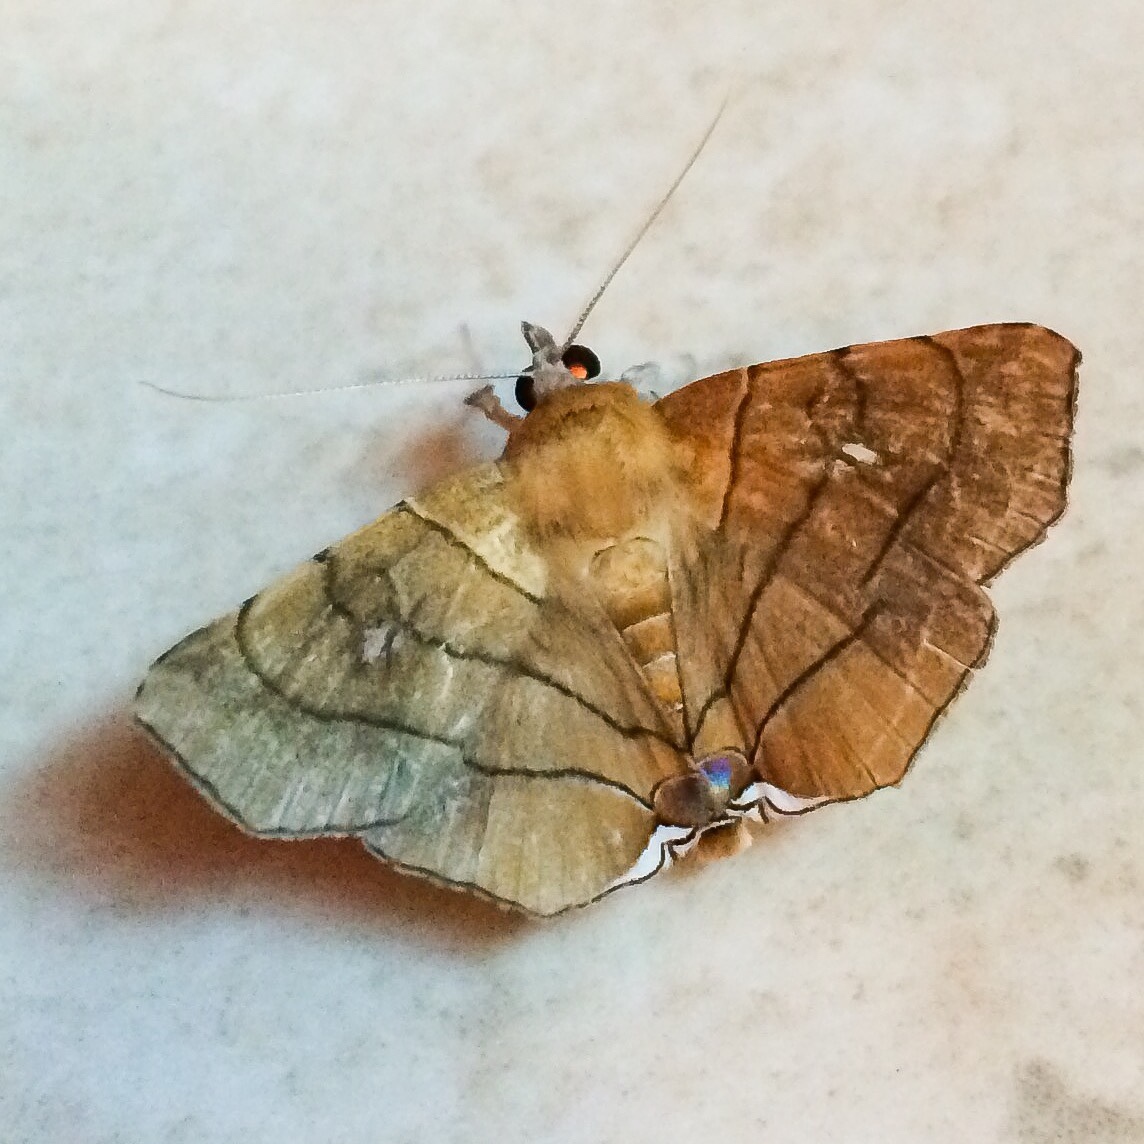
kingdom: Animalia
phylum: Arthropoda
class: Insecta
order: Lepidoptera
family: Erebidae
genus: Gracilodes
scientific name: Gracilodes caffra
